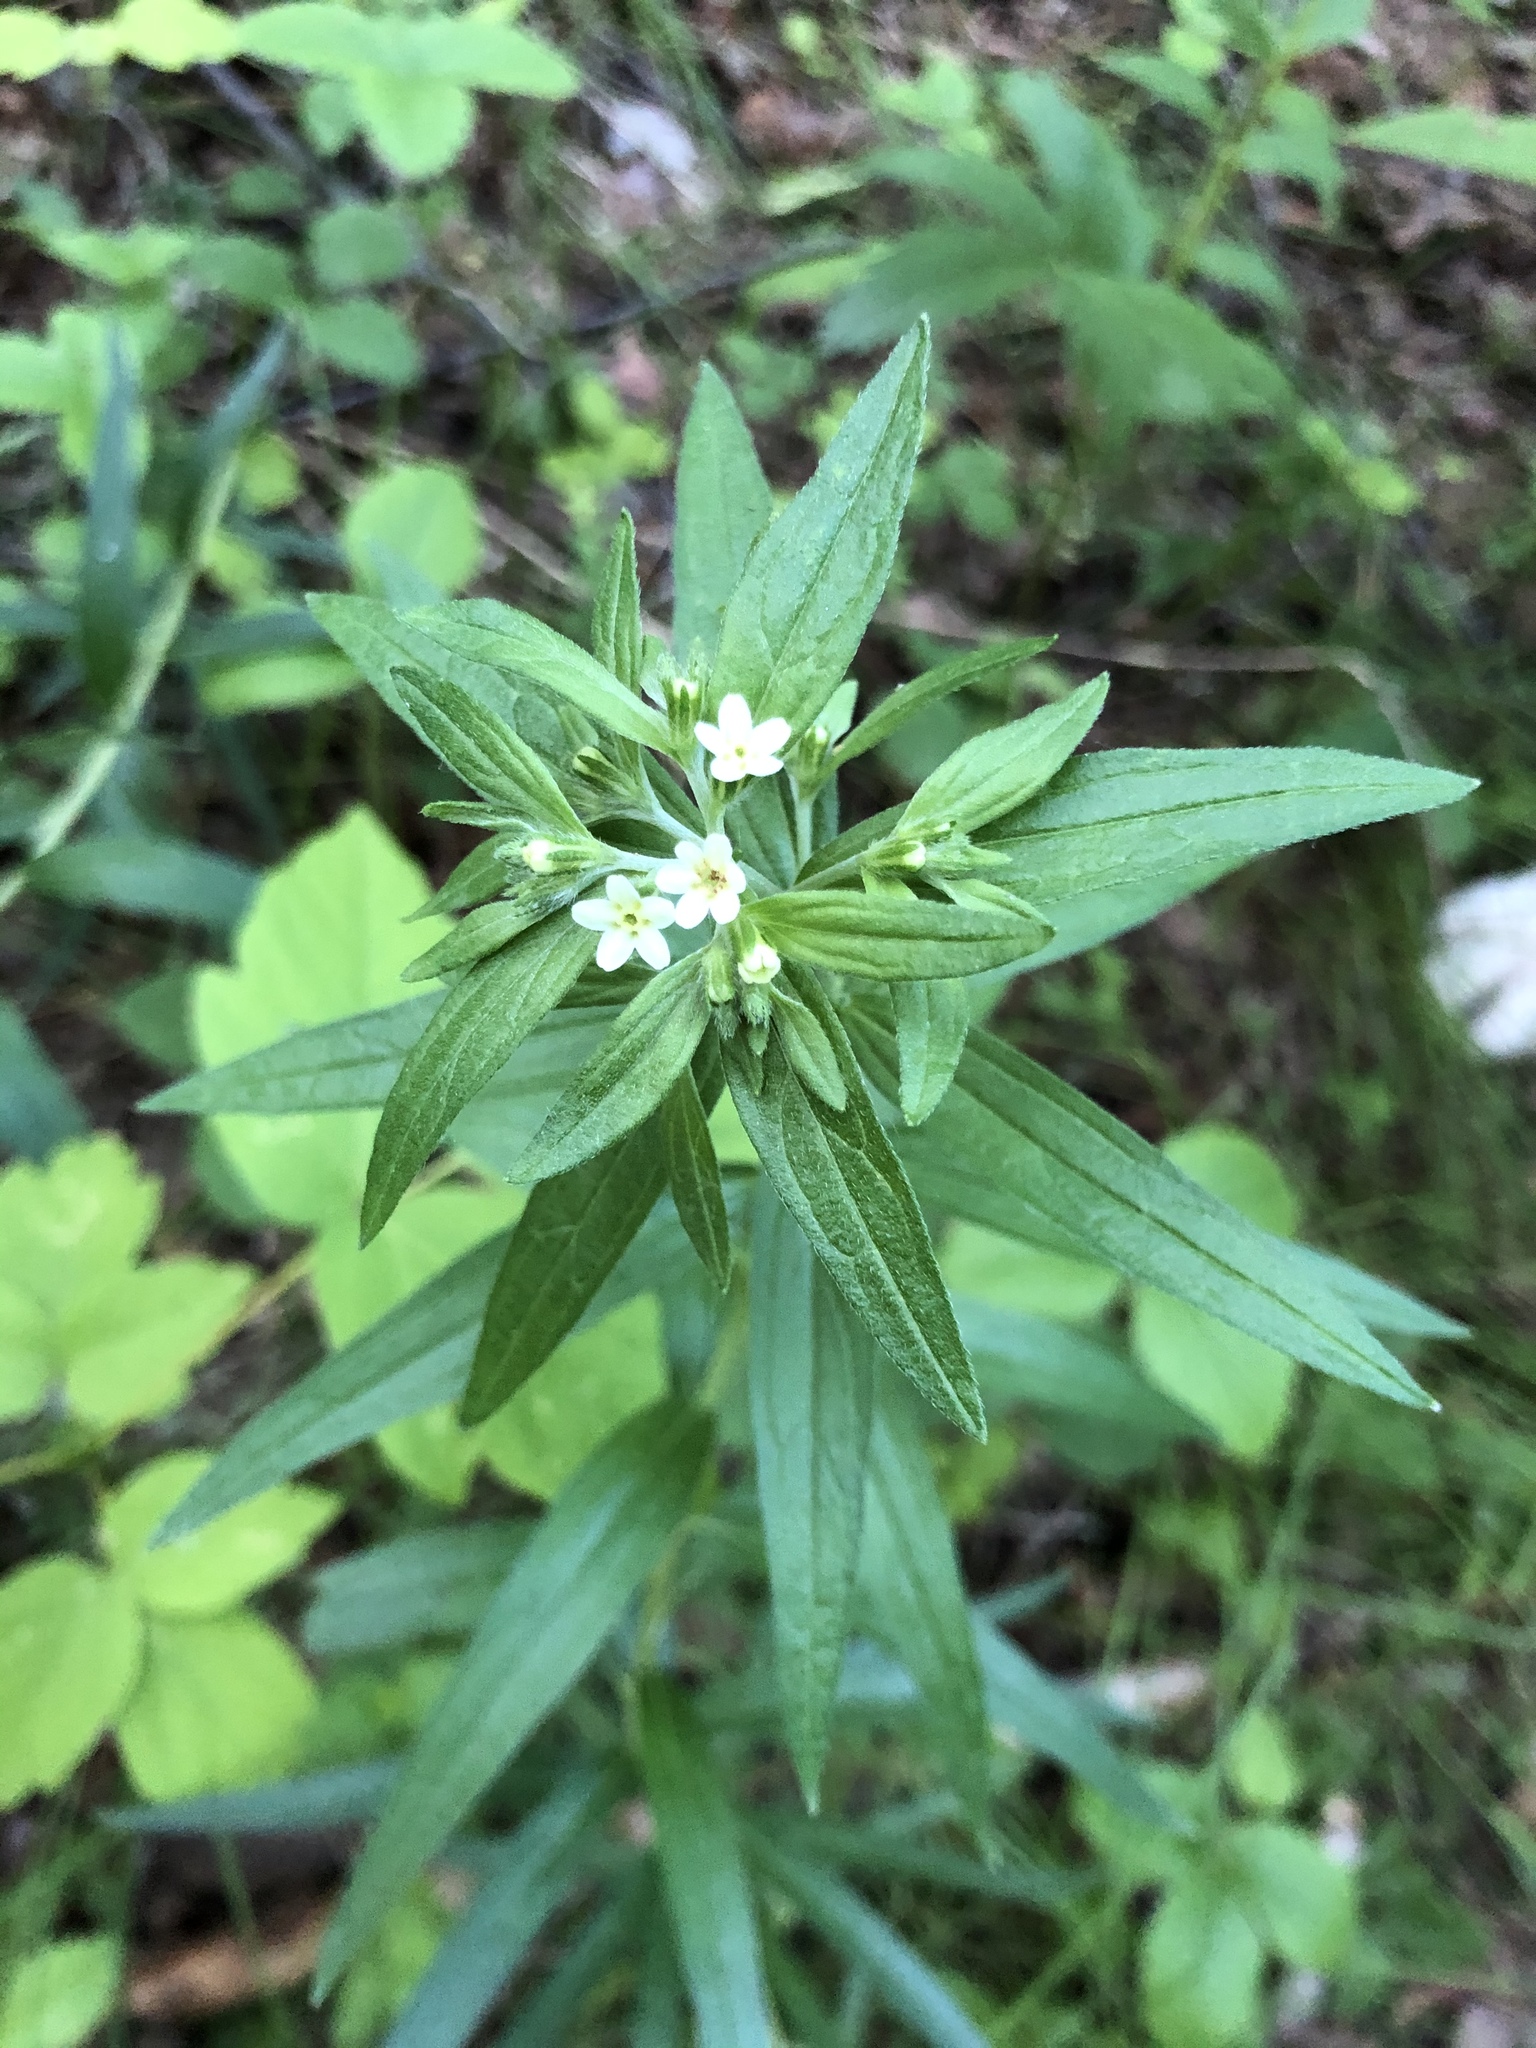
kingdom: Plantae
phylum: Tracheophyta
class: Magnoliopsida
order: Boraginales
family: Boraginaceae
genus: Lithospermum
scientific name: Lithospermum officinale
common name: Common gromwell
